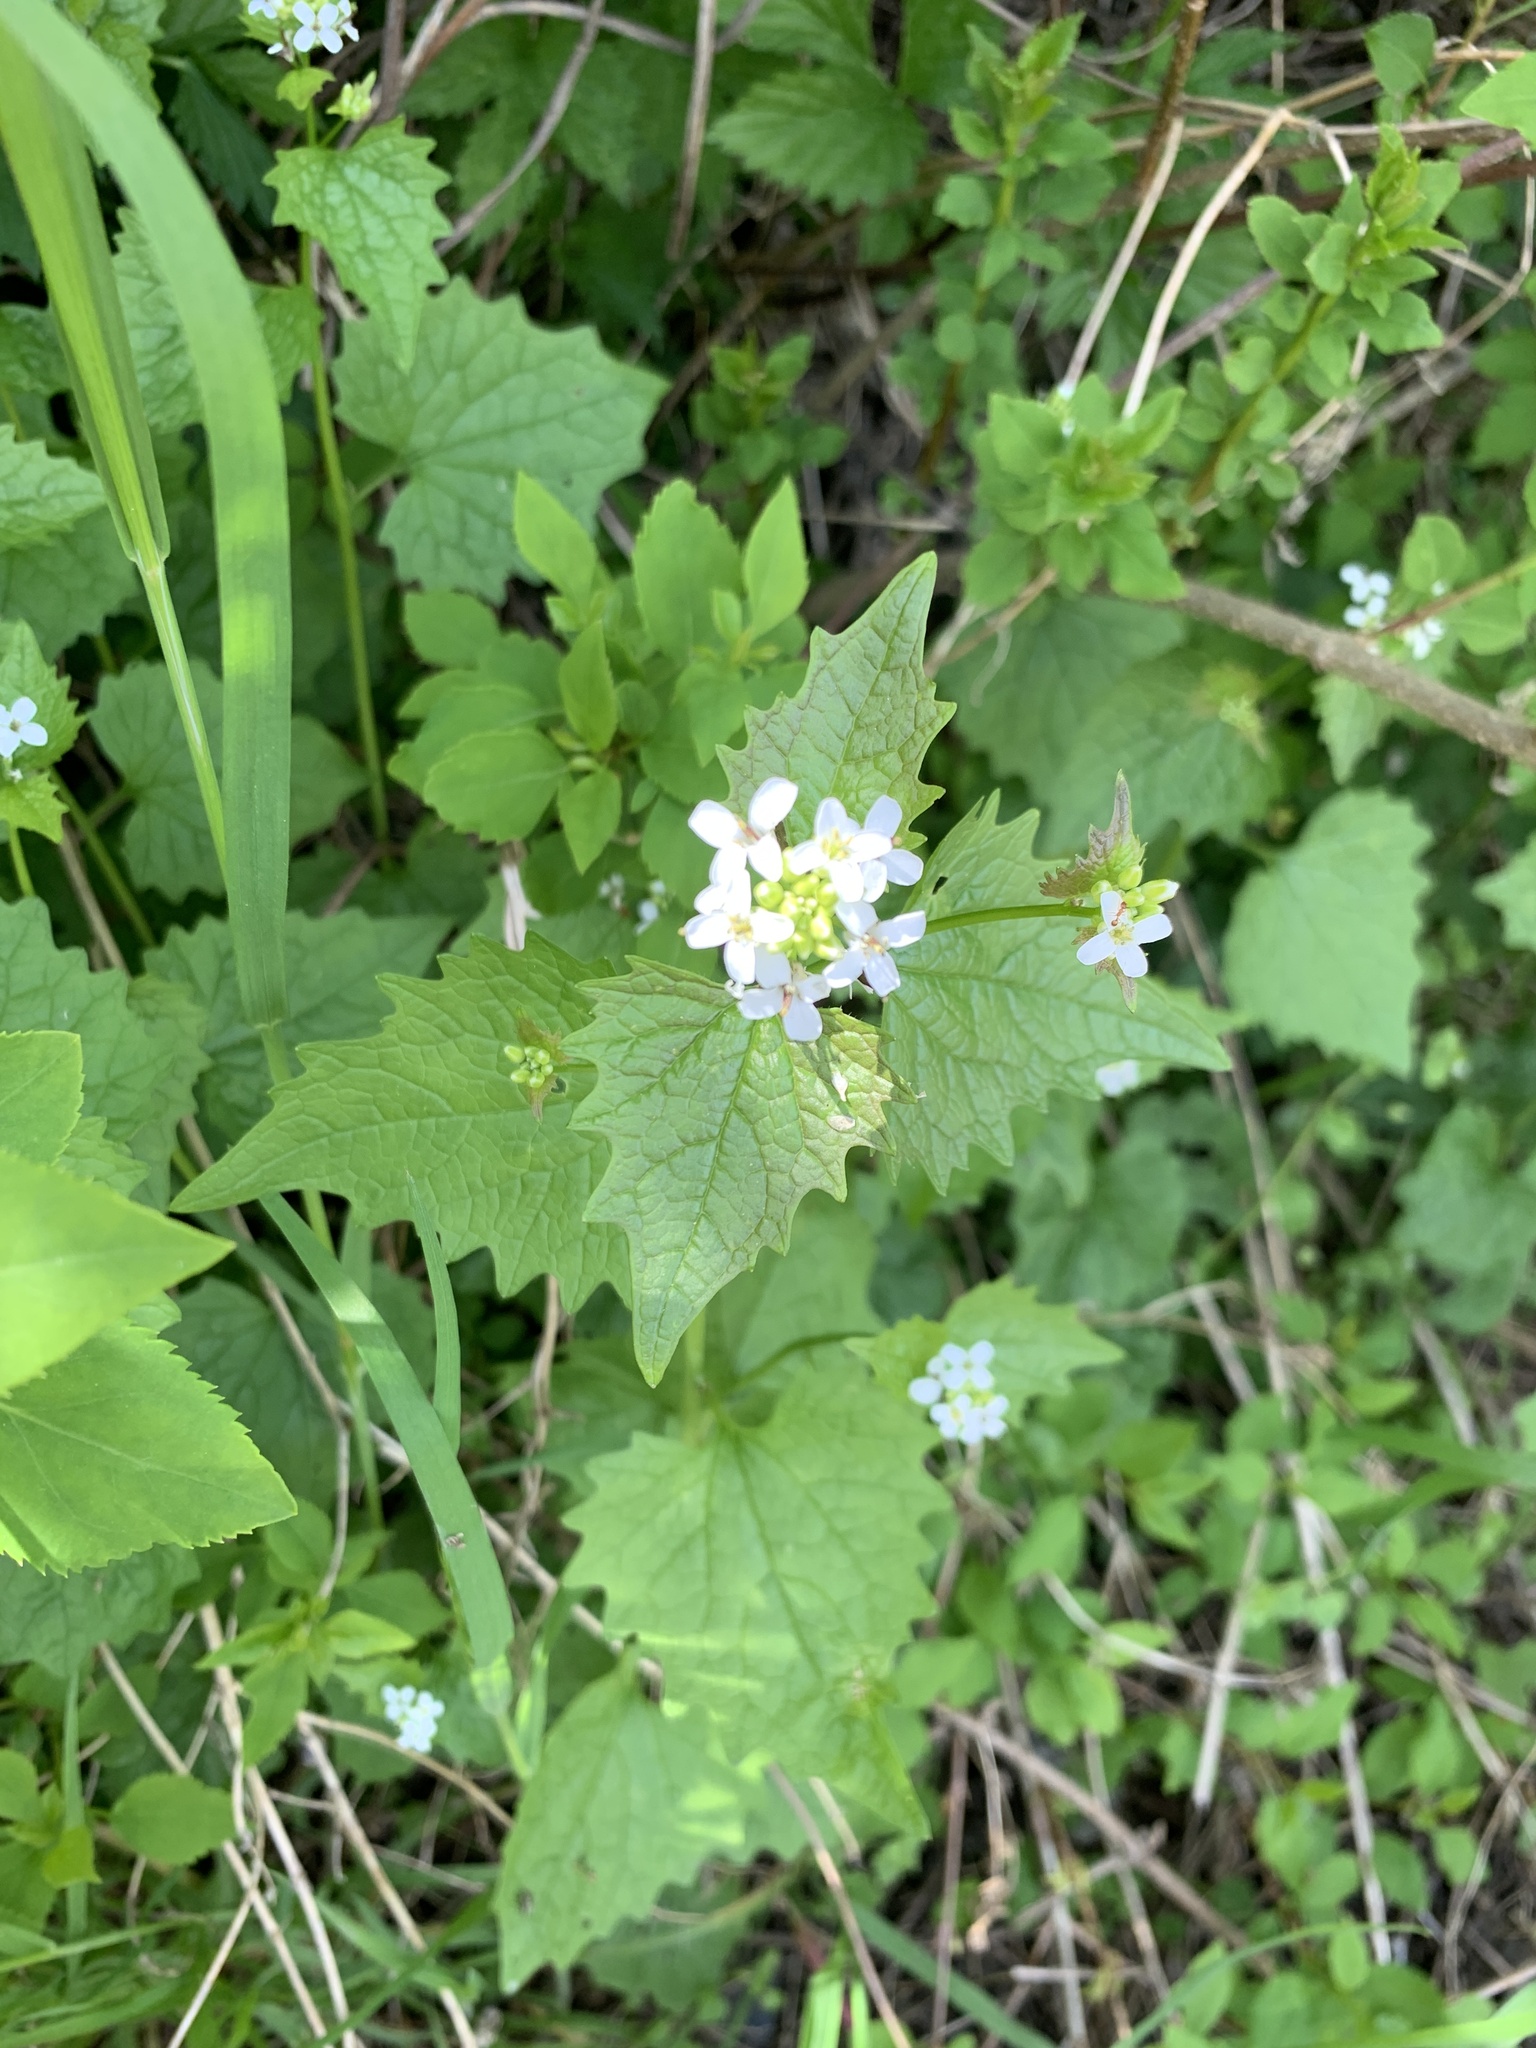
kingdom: Plantae
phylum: Tracheophyta
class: Magnoliopsida
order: Brassicales
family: Brassicaceae
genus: Alliaria
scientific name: Alliaria petiolata
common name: Garlic mustard
